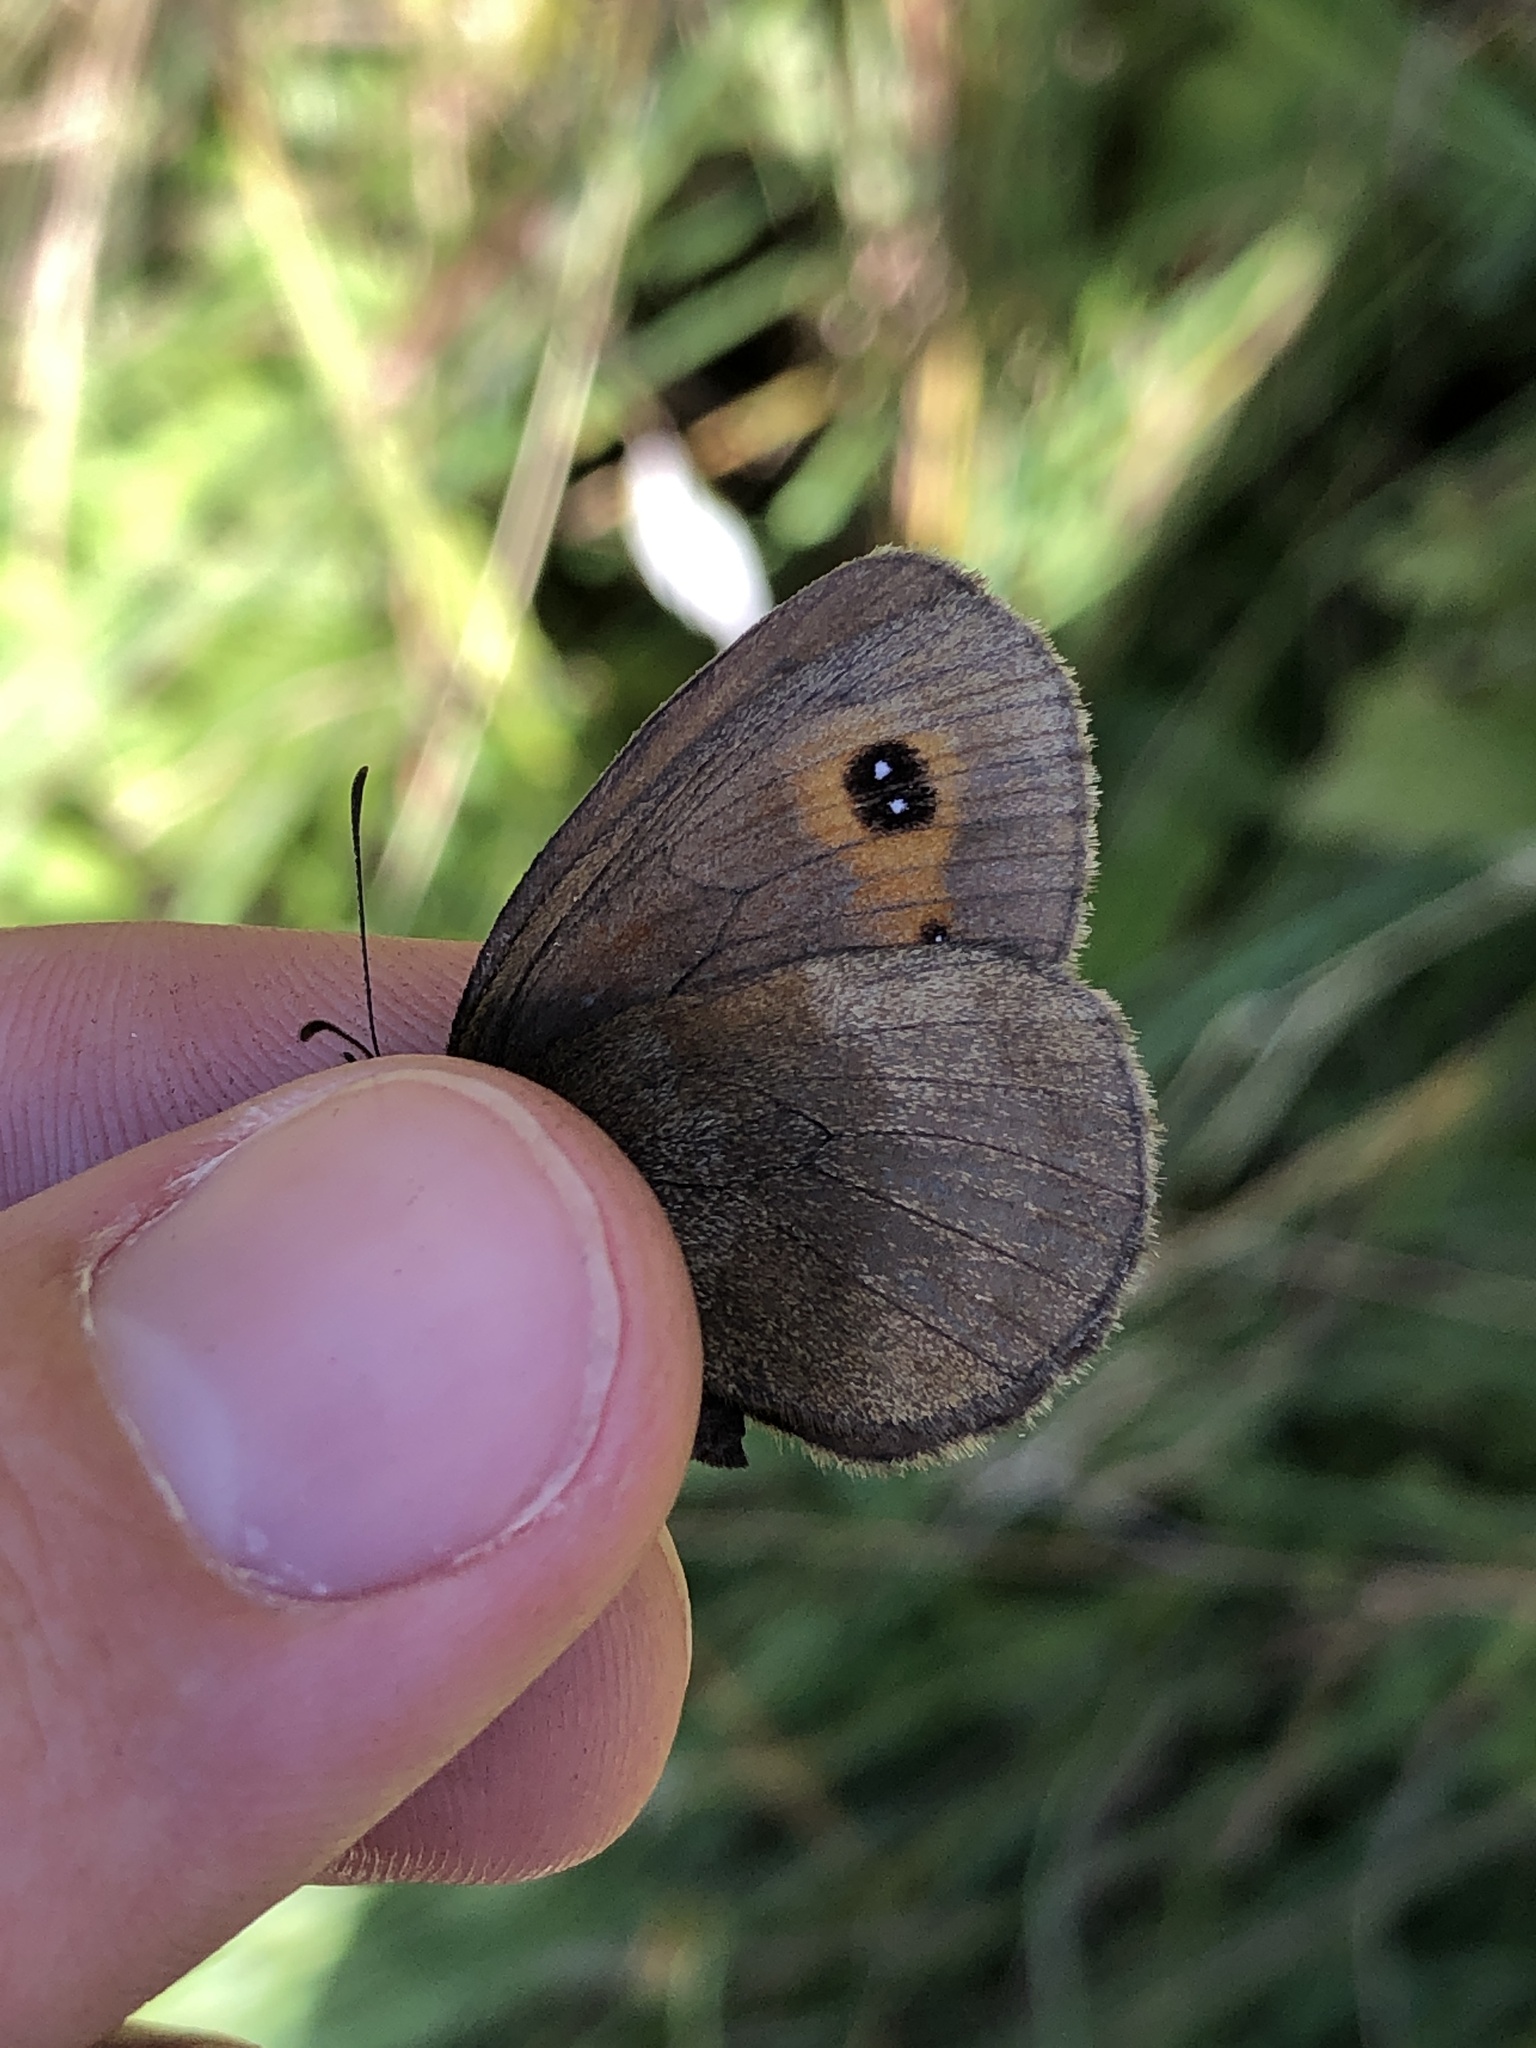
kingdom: Animalia
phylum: Arthropoda
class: Insecta
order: Lepidoptera
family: Nymphalidae
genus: Erebia
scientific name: Erebia aethiops
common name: Scotch argus
